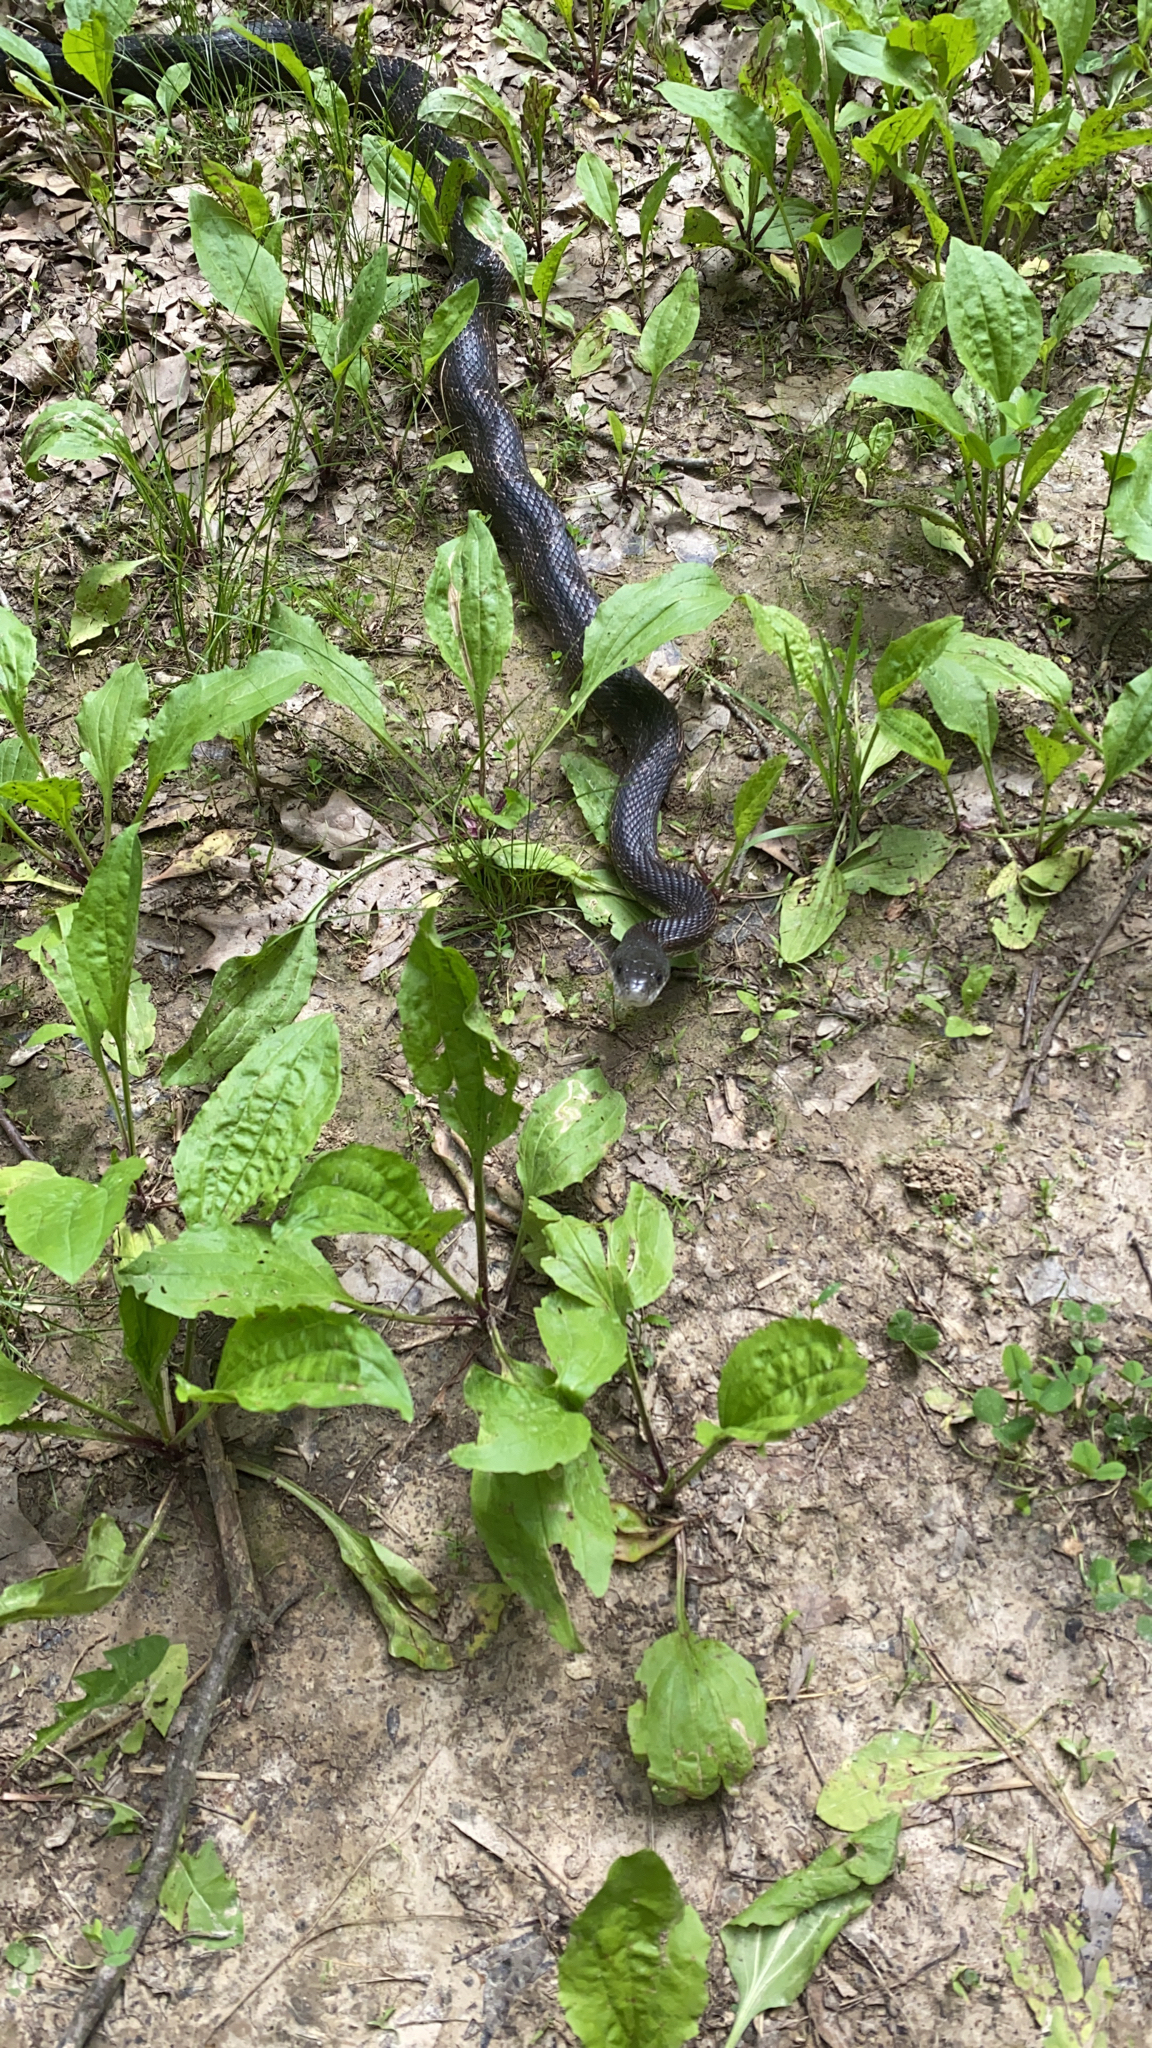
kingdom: Animalia
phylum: Chordata
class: Squamata
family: Colubridae
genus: Pantherophis
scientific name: Pantherophis obsoletus
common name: Black rat snake
